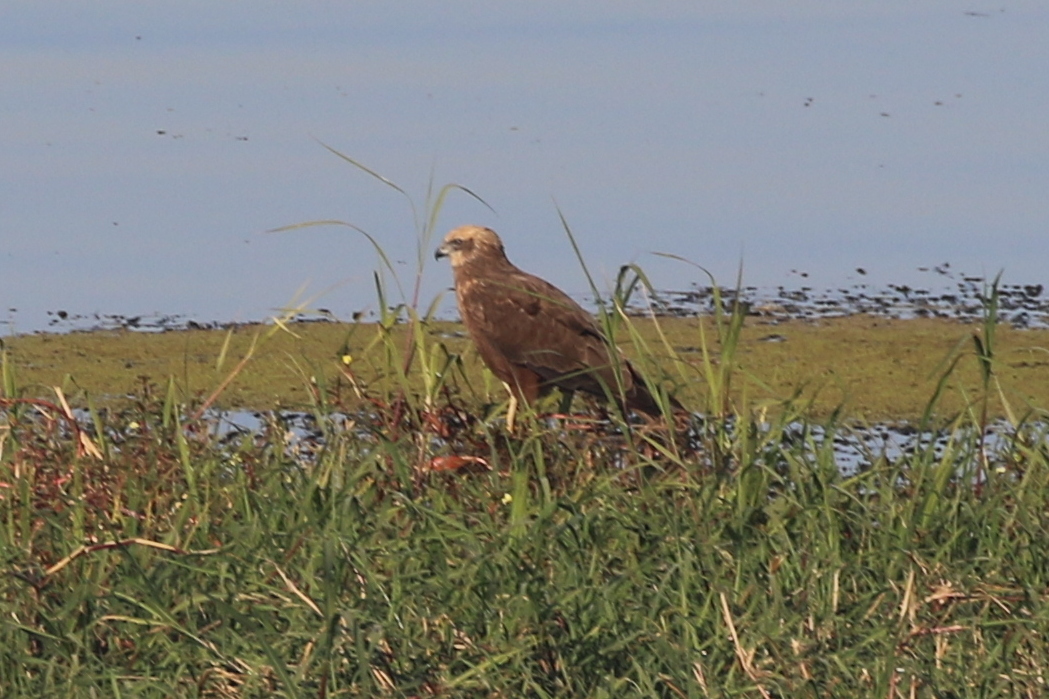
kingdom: Animalia
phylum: Chordata
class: Aves
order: Accipitriformes
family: Accipitridae
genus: Circus
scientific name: Circus aeruginosus
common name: Western marsh harrier
